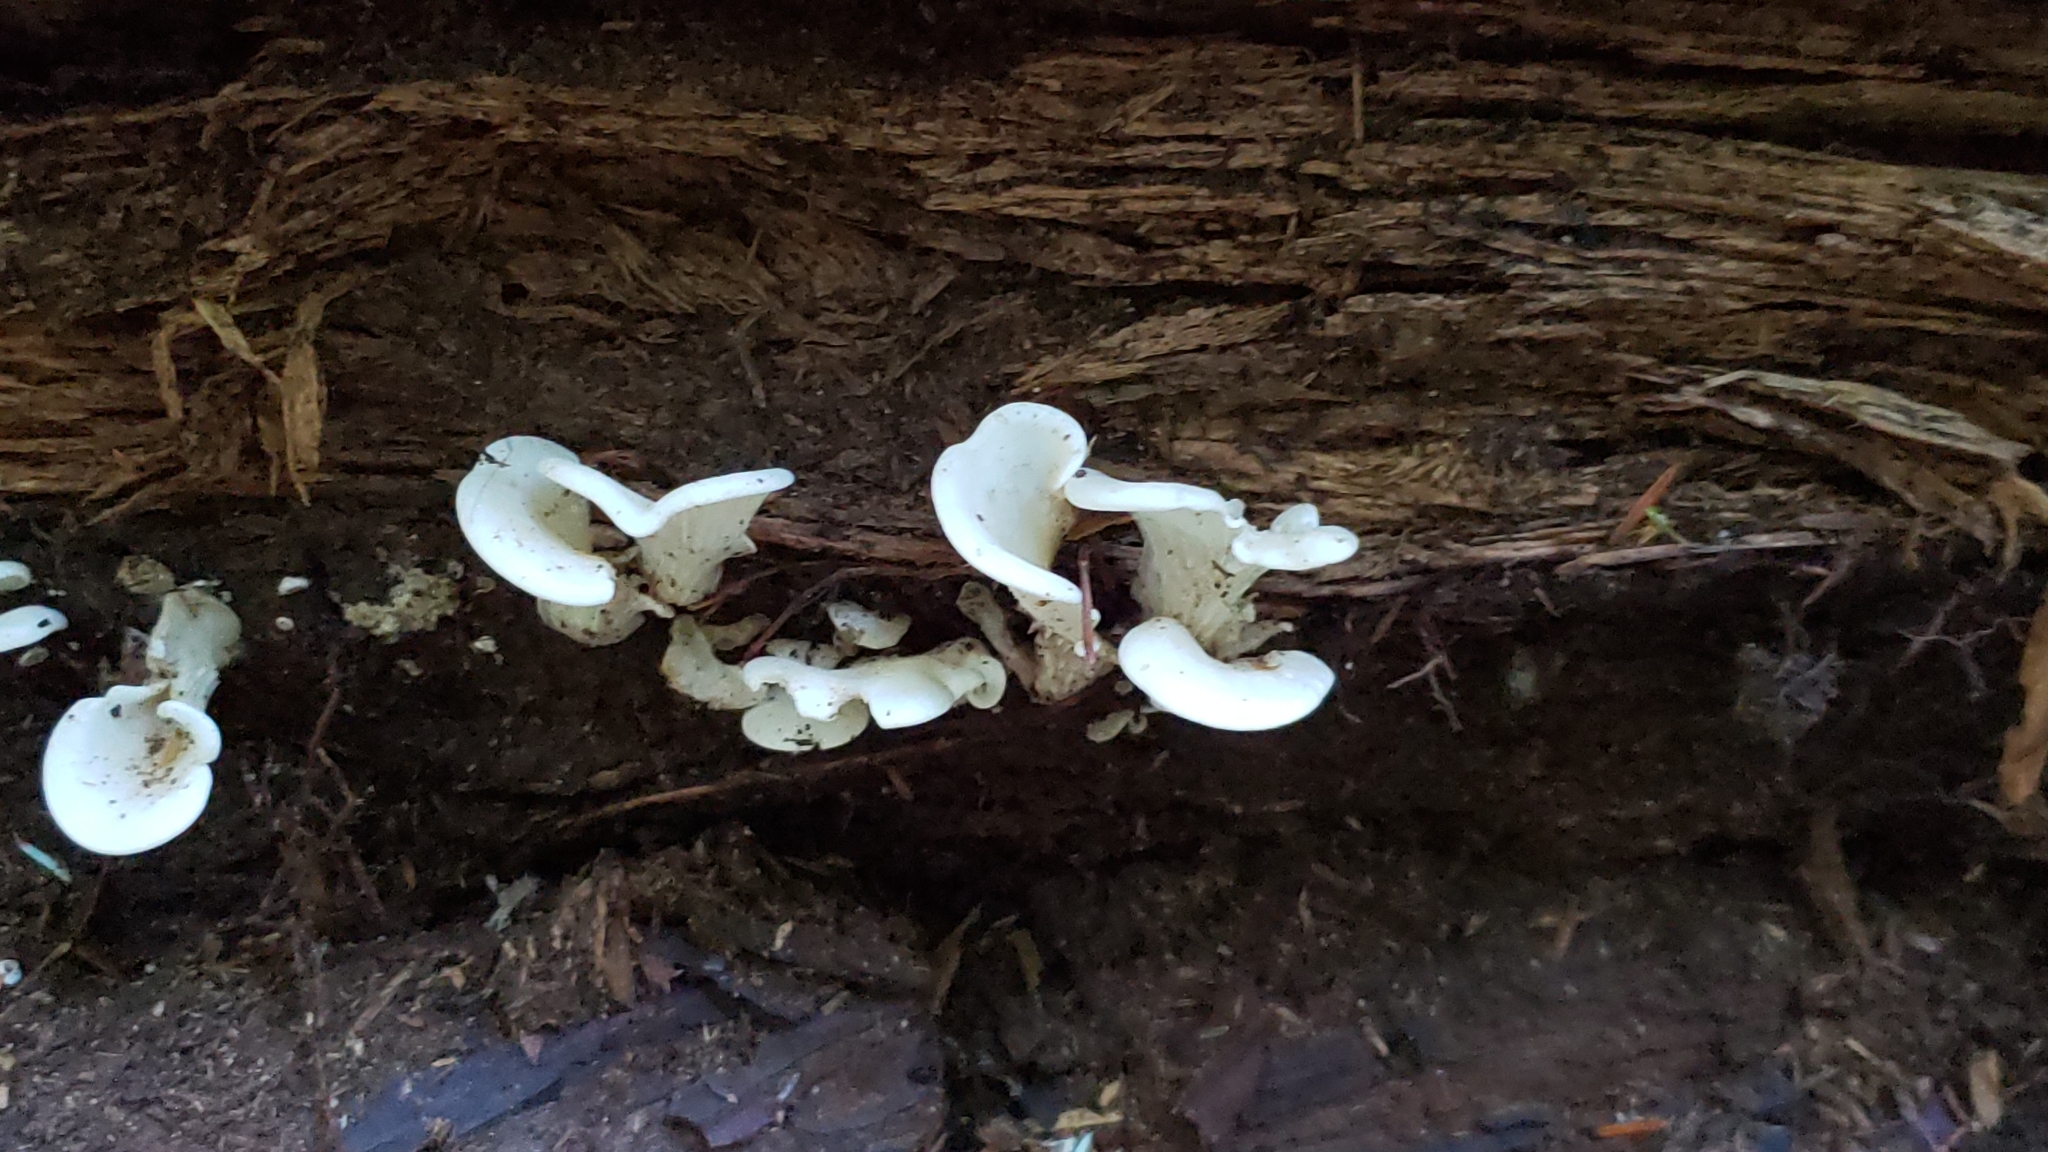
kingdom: Fungi
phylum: Basidiomycota
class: Agaricomycetes
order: Agaricales
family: Marasmiaceae
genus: Pleurocybella
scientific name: Pleurocybella porrigens
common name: Angel's wings
